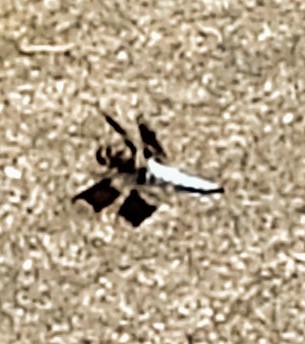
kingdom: Animalia
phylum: Arthropoda
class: Insecta
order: Odonata
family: Libellulidae
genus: Plathemis
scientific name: Plathemis lydia
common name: Common whitetail
